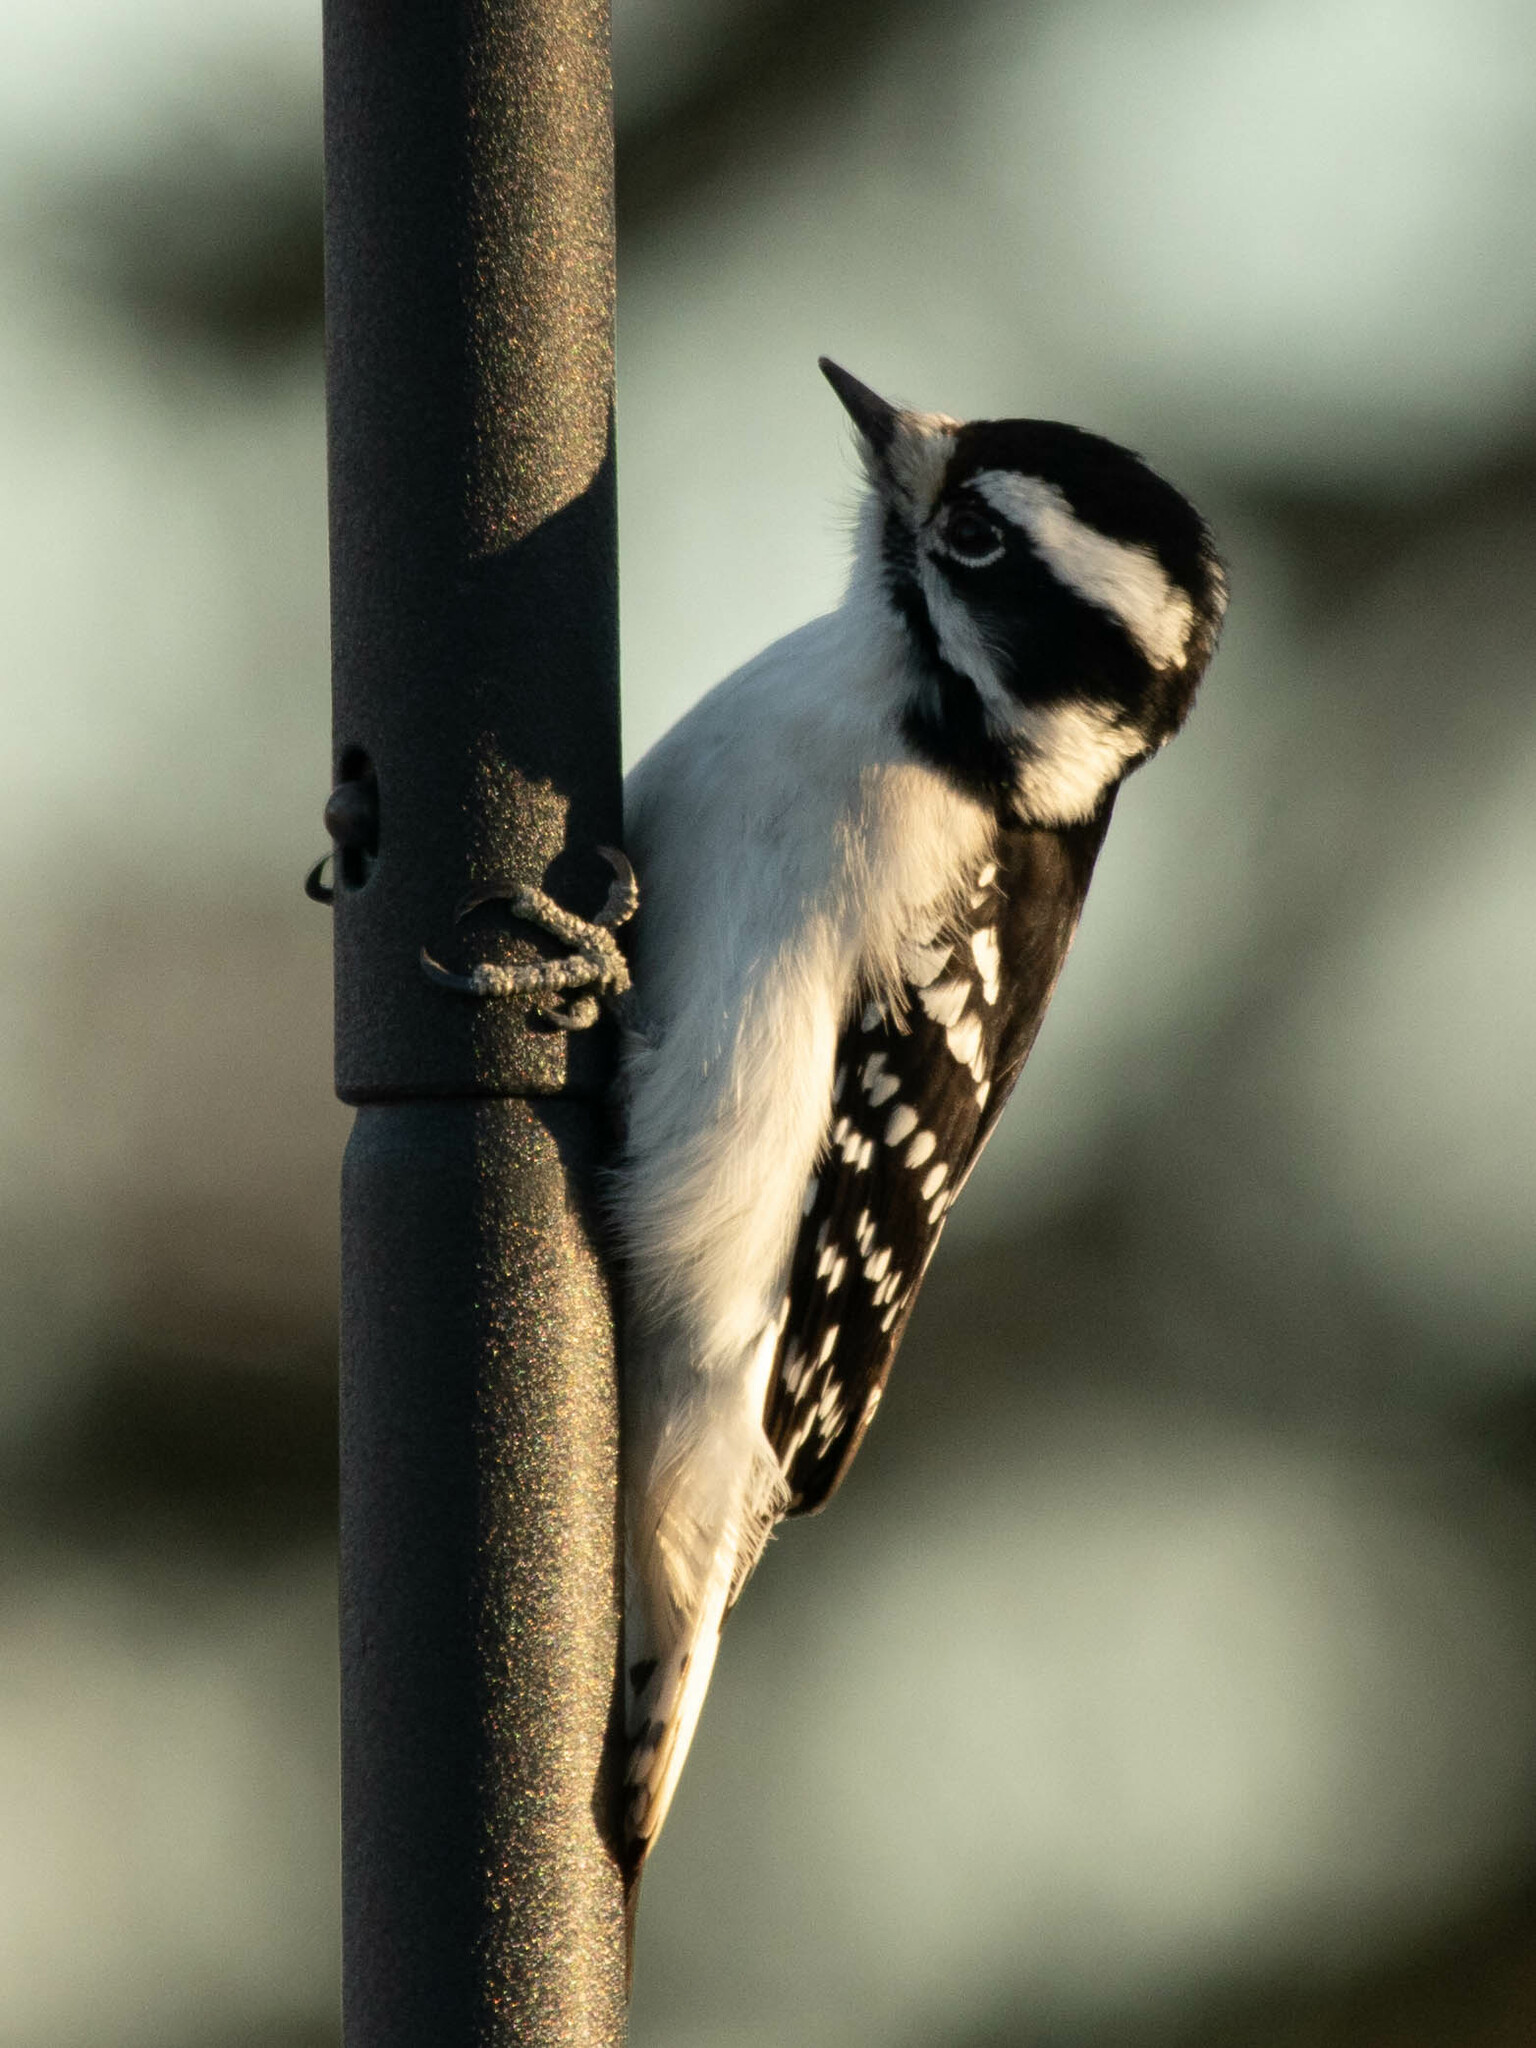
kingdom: Animalia
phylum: Chordata
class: Aves
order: Piciformes
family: Picidae
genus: Dryobates
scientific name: Dryobates pubescens
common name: Downy woodpecker
